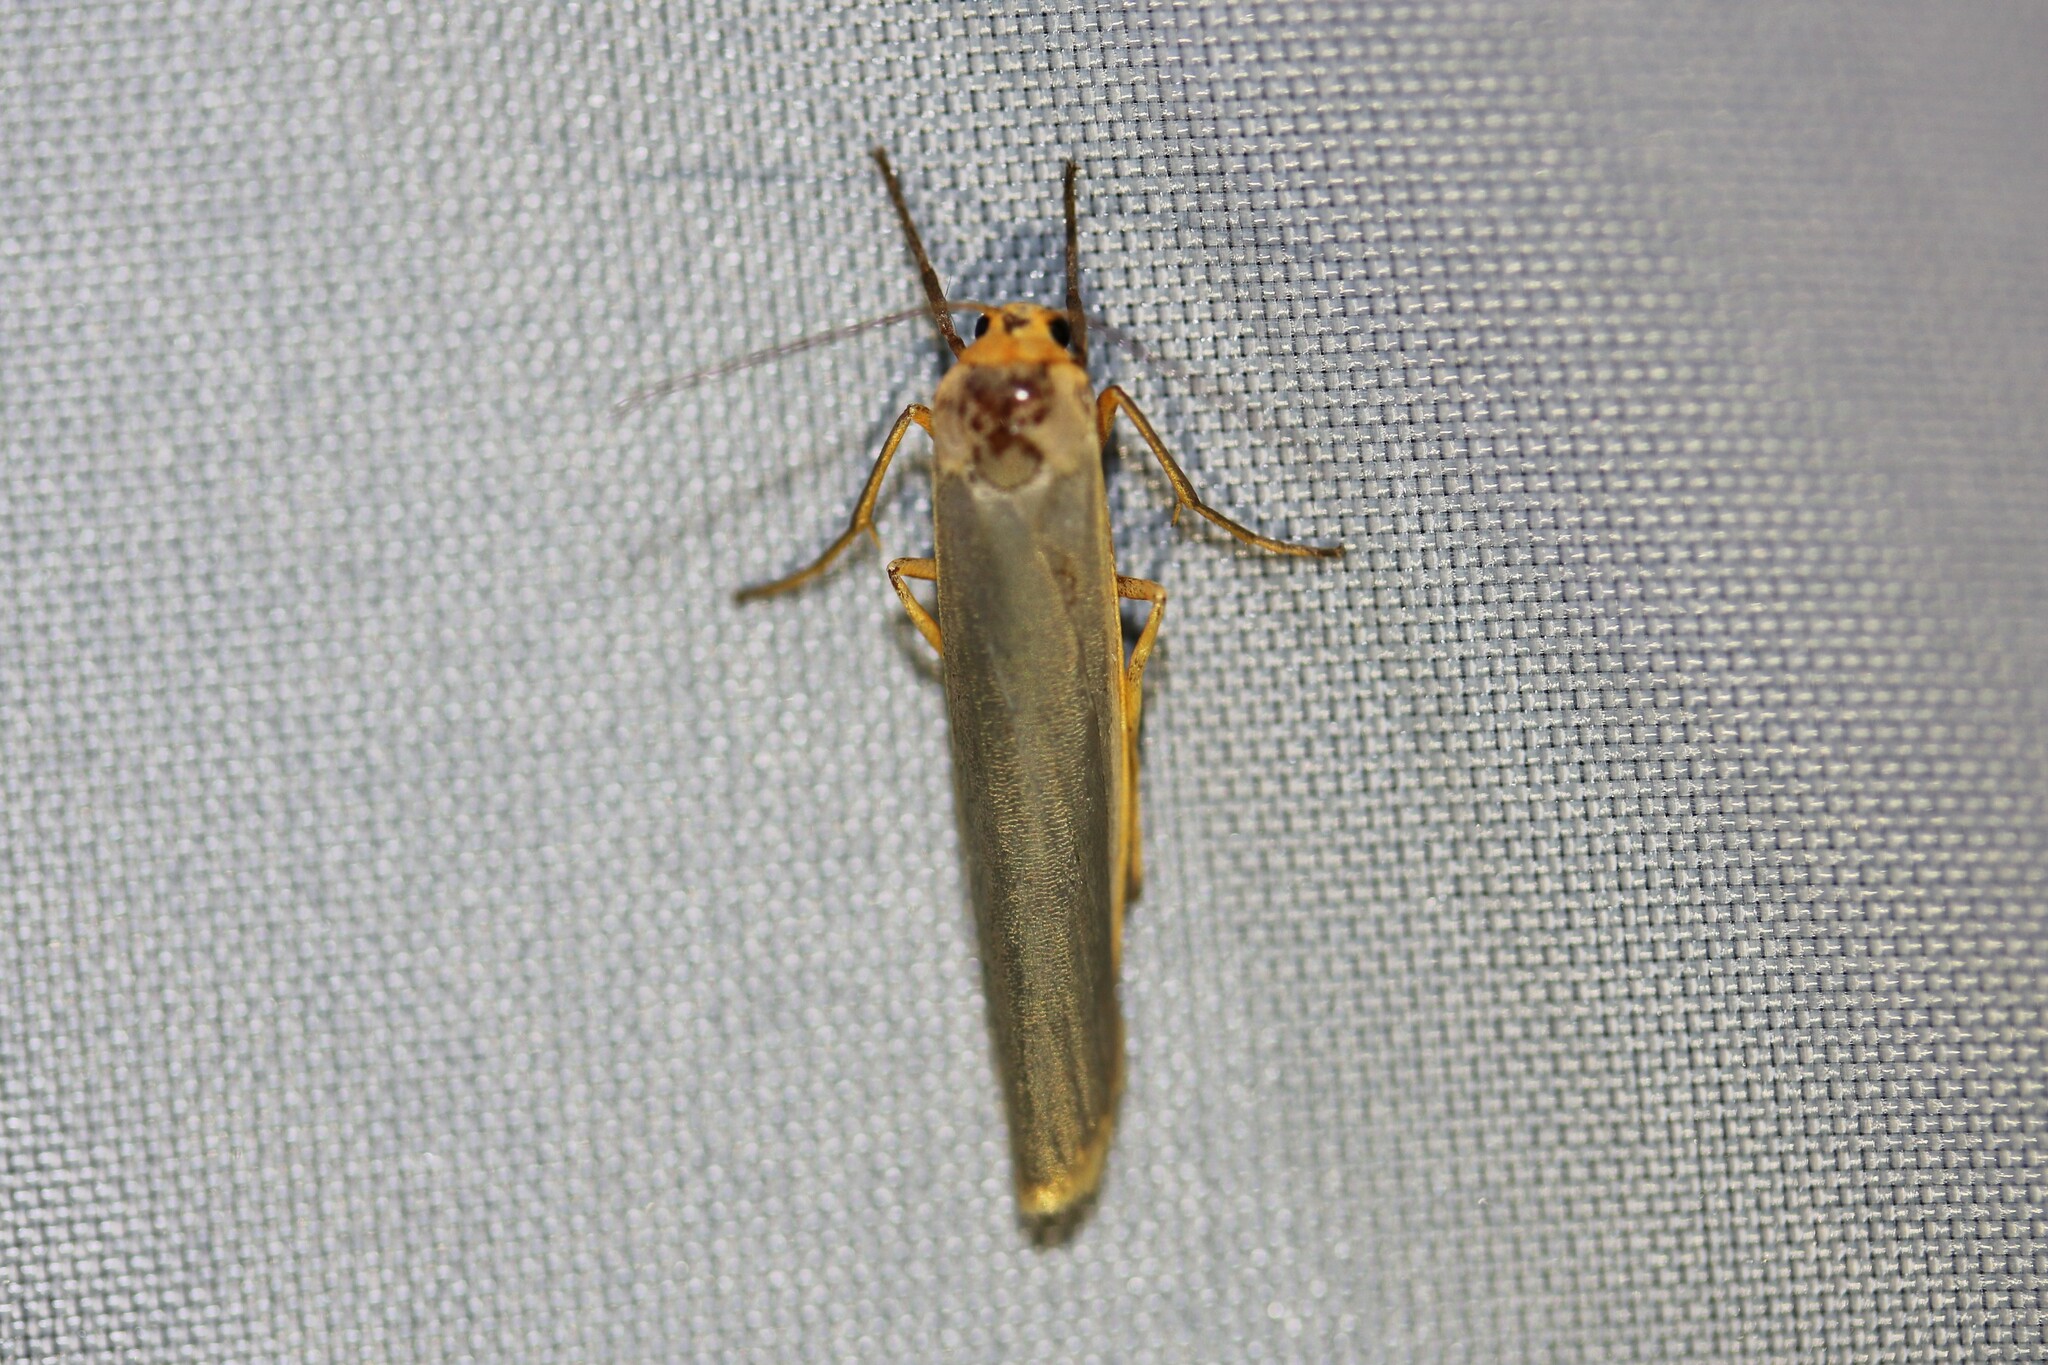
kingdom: Animalia
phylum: Arthropoda
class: Insecta
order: Lepidoptera
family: Erebidae
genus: Manulea
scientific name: Manulea complana
